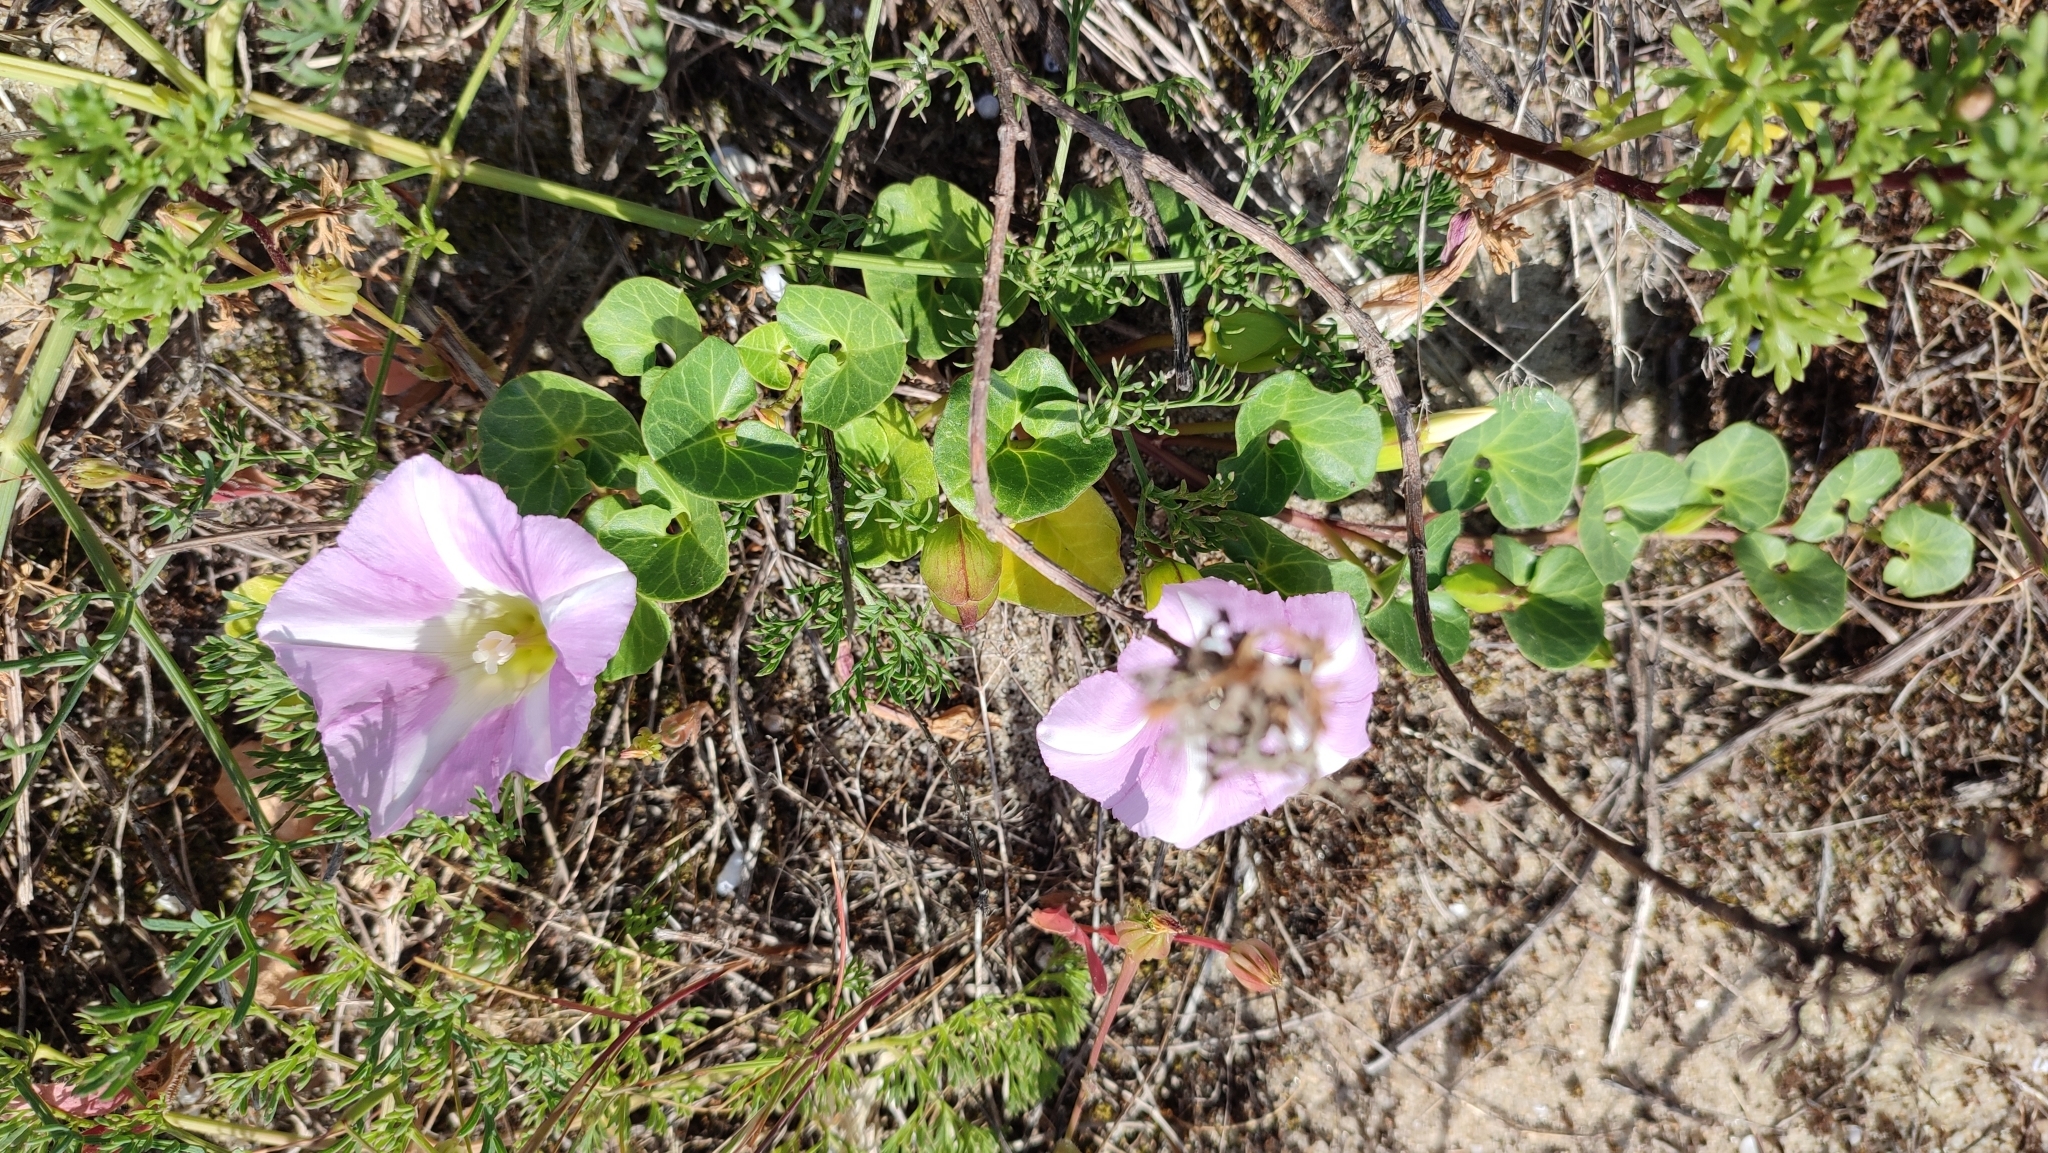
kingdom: Plantae
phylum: Tracheophyta
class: Magnoliopsida
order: Solanales
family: Convolvulaceae
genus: Calystegia
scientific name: Calystegia soldanella
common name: Sea bindweed
